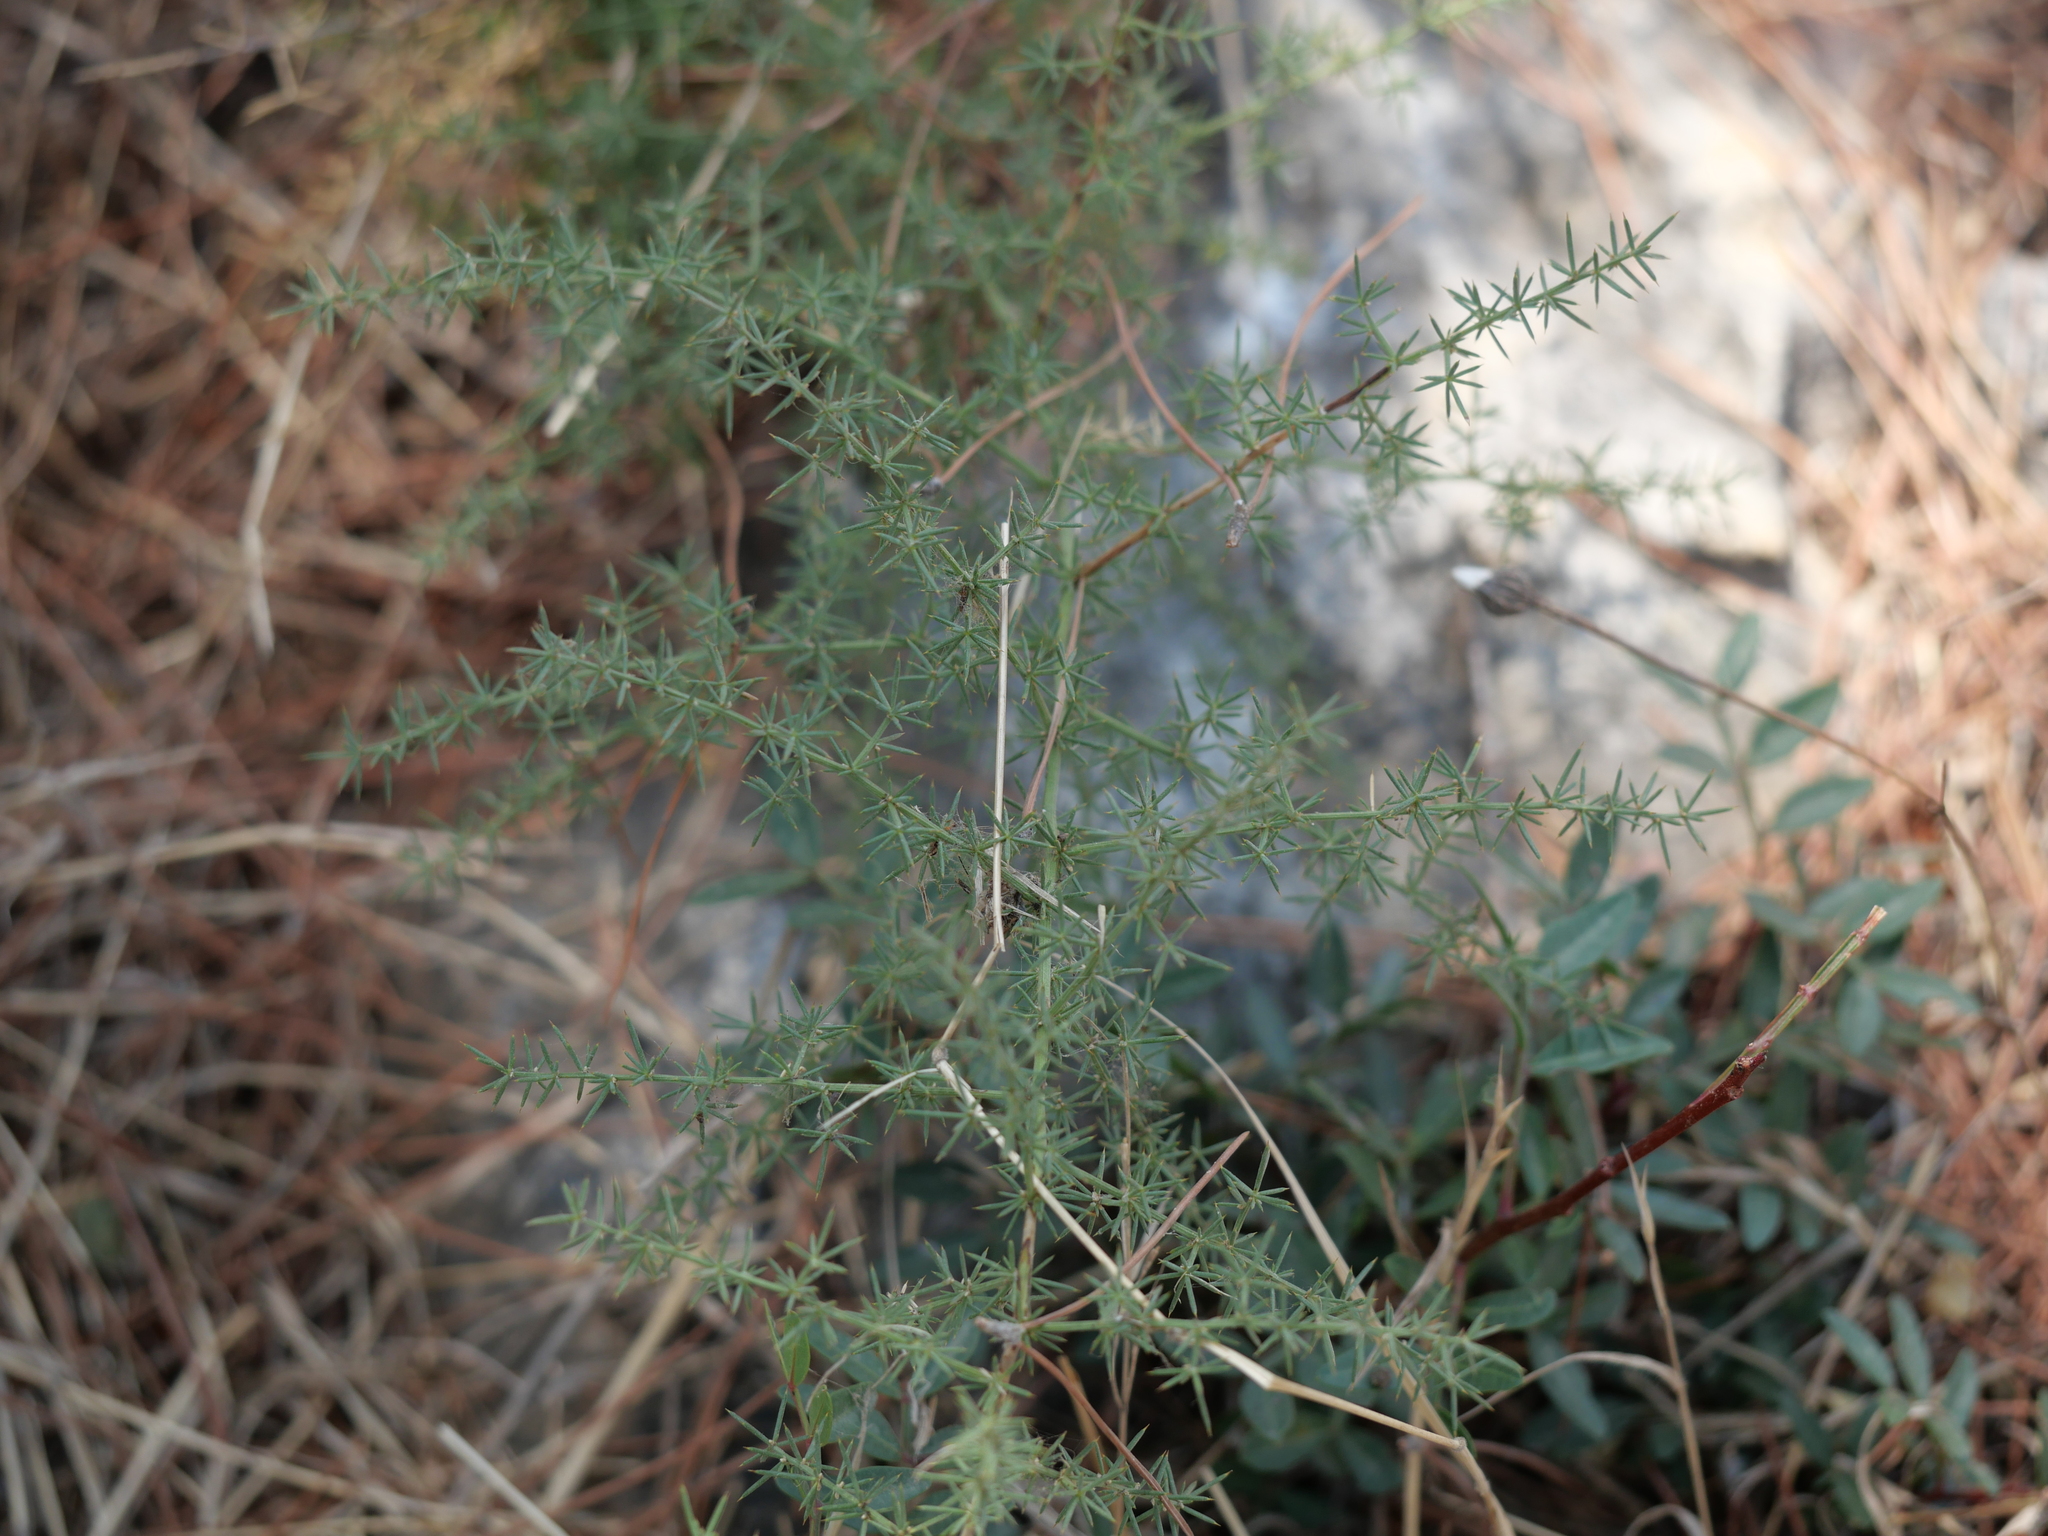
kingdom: Plantae
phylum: Tracheophyta
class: Liliopsida
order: Asparagales
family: Asparagaceae
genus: Asparagus
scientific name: Asparagus acutifolius
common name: Wild asparagus
